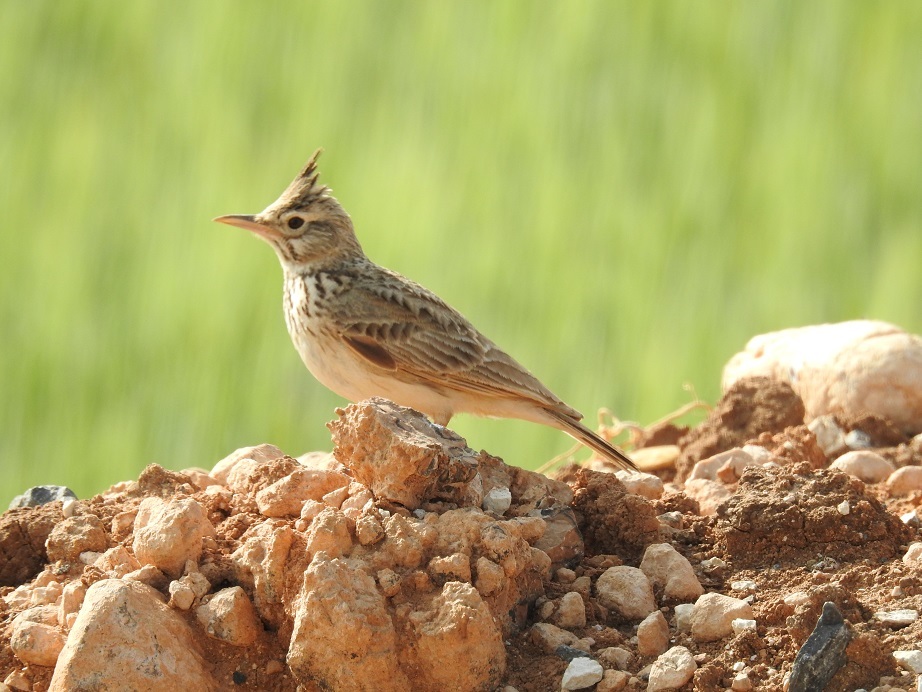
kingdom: Animalia
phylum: Chordata
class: Aves
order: Passeriformes
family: Alaudidae
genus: Galerida
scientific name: Galerida cristata
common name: Crested lark
